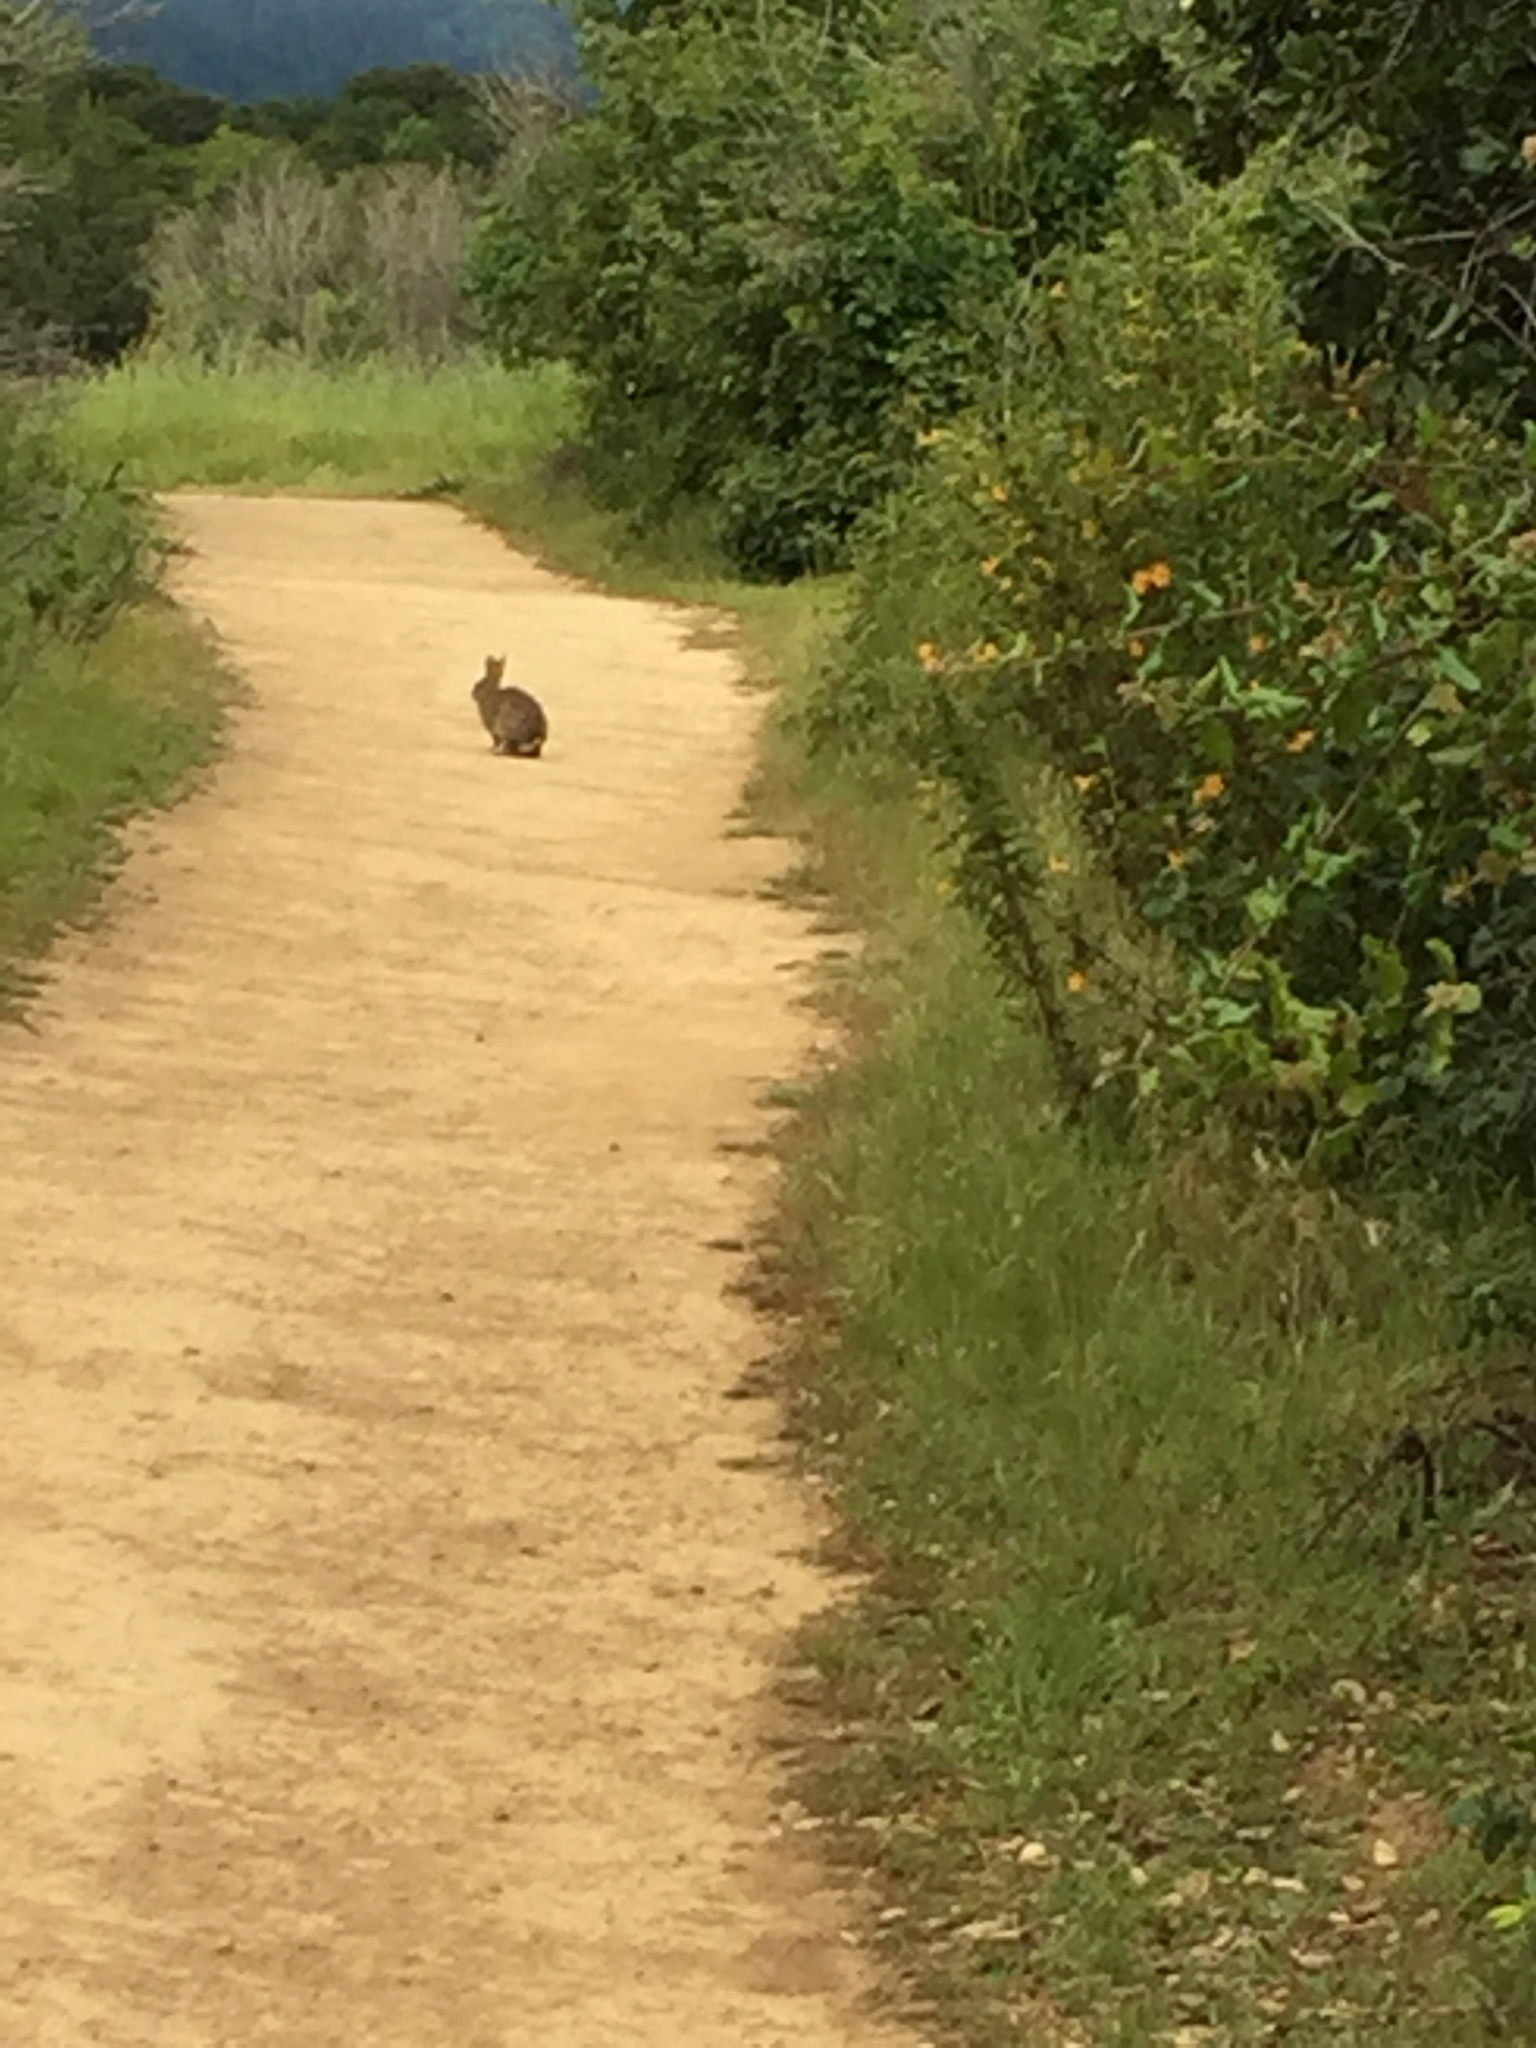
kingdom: Animalia
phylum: Chordata
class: Mammalia
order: Lagomorpha
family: Leporidae
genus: Sylvilagus
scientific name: Sylvilagus bachmani
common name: Brush rabbit
